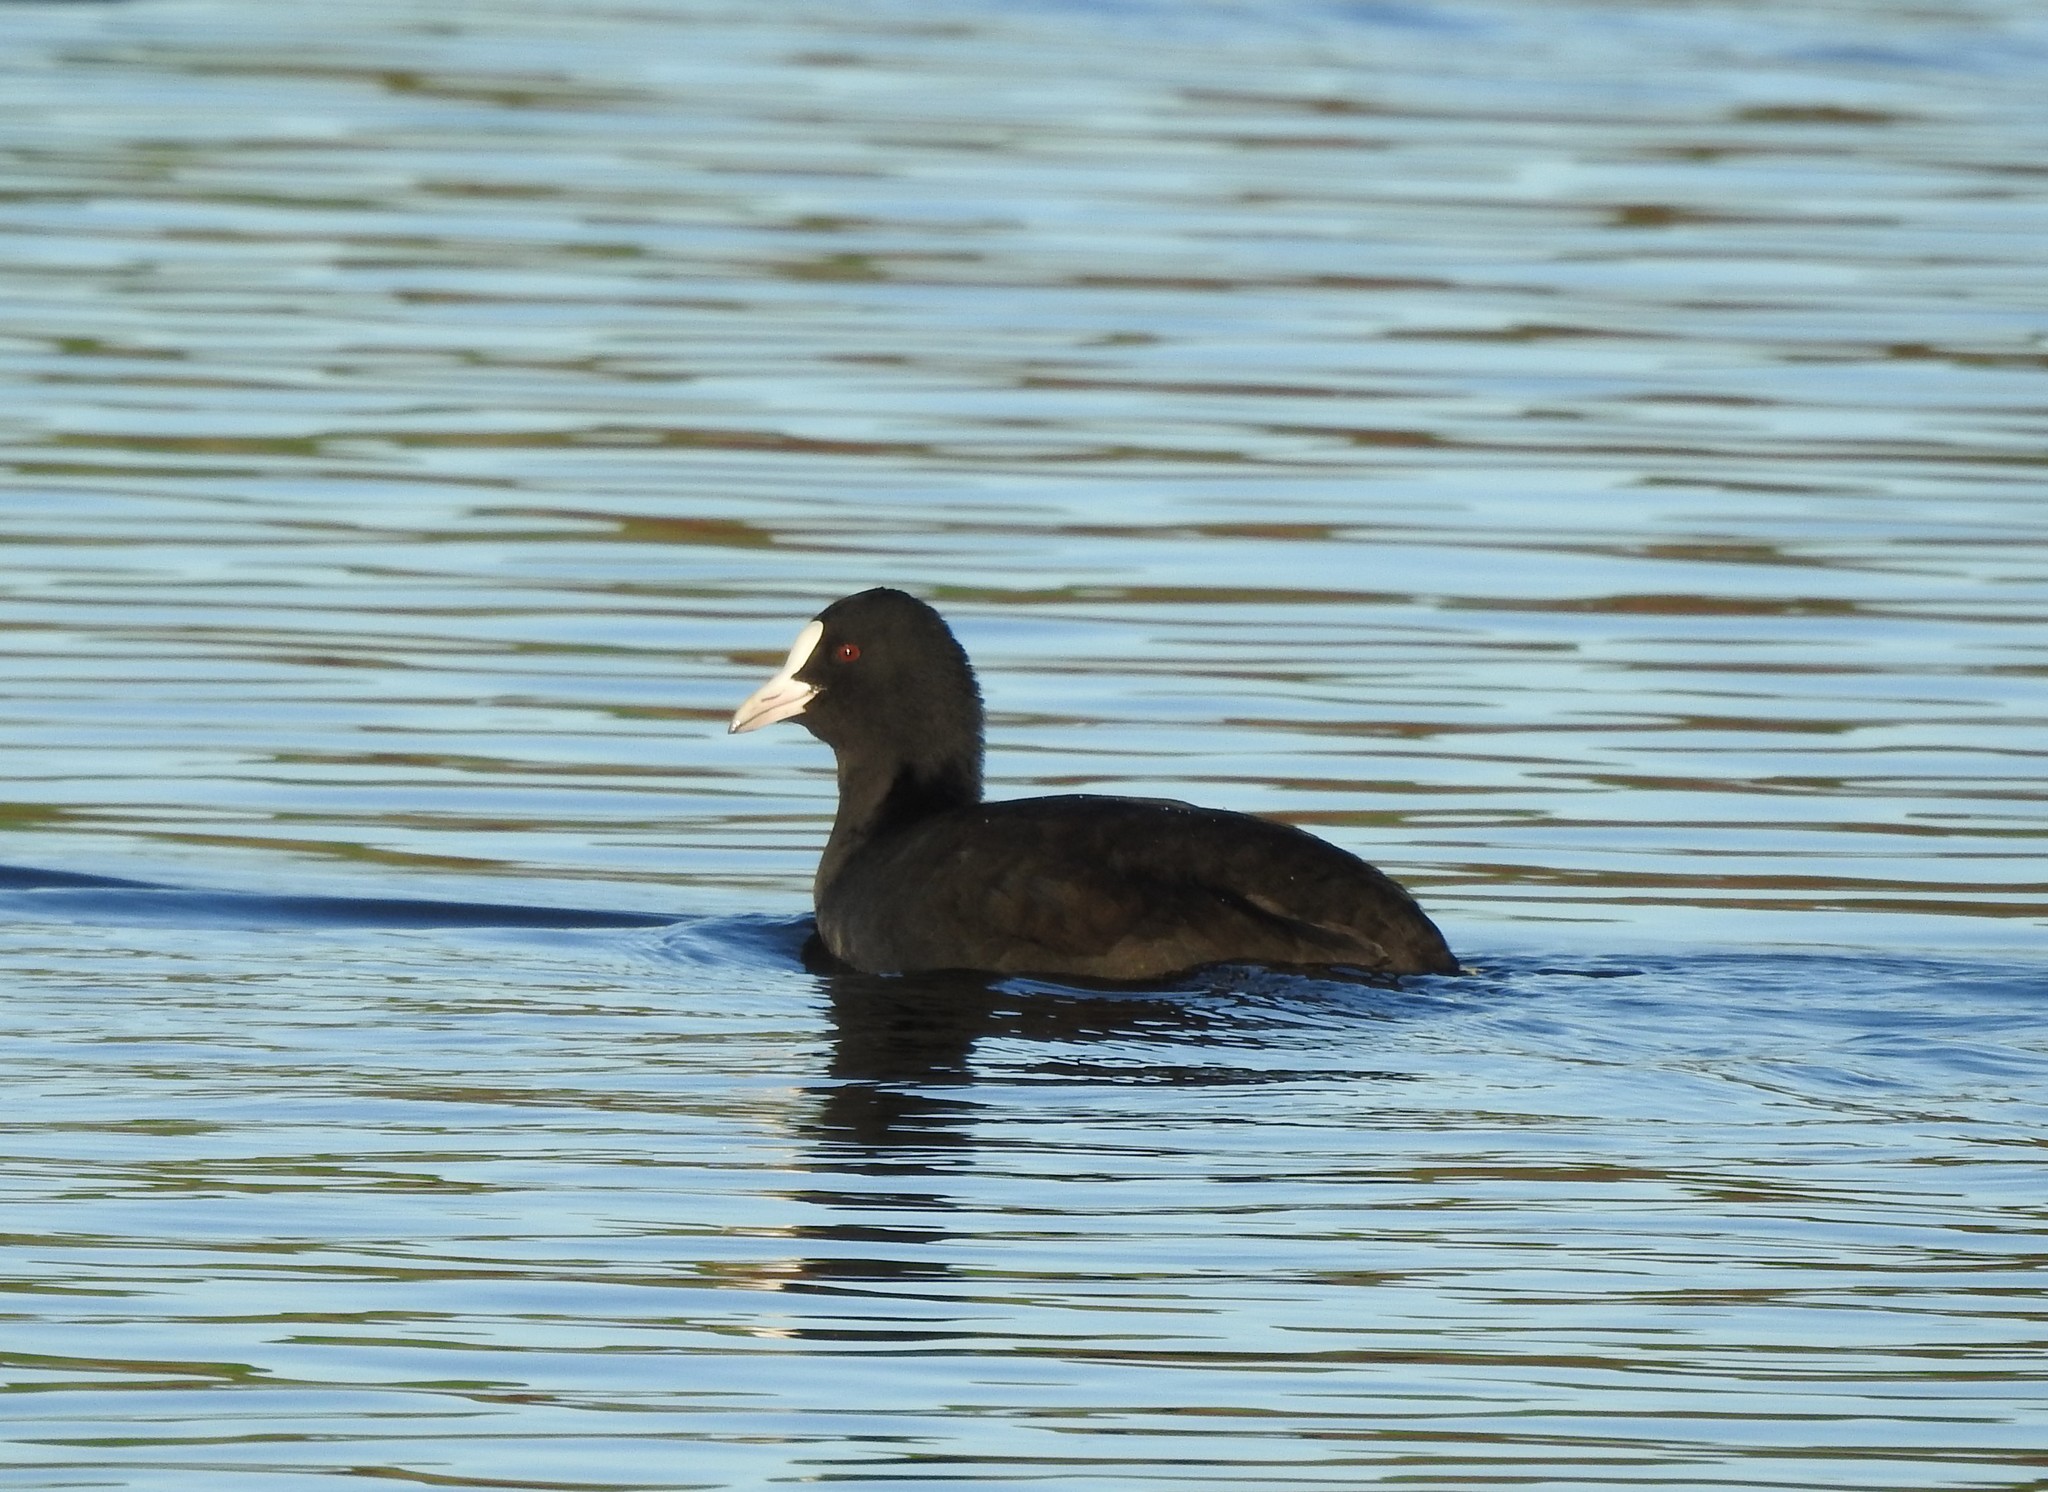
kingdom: Animalia
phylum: Chordata
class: Aves
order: Gruiformes
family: Rallidae
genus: Fulica
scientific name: Fulica atra
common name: Eurasian coot
